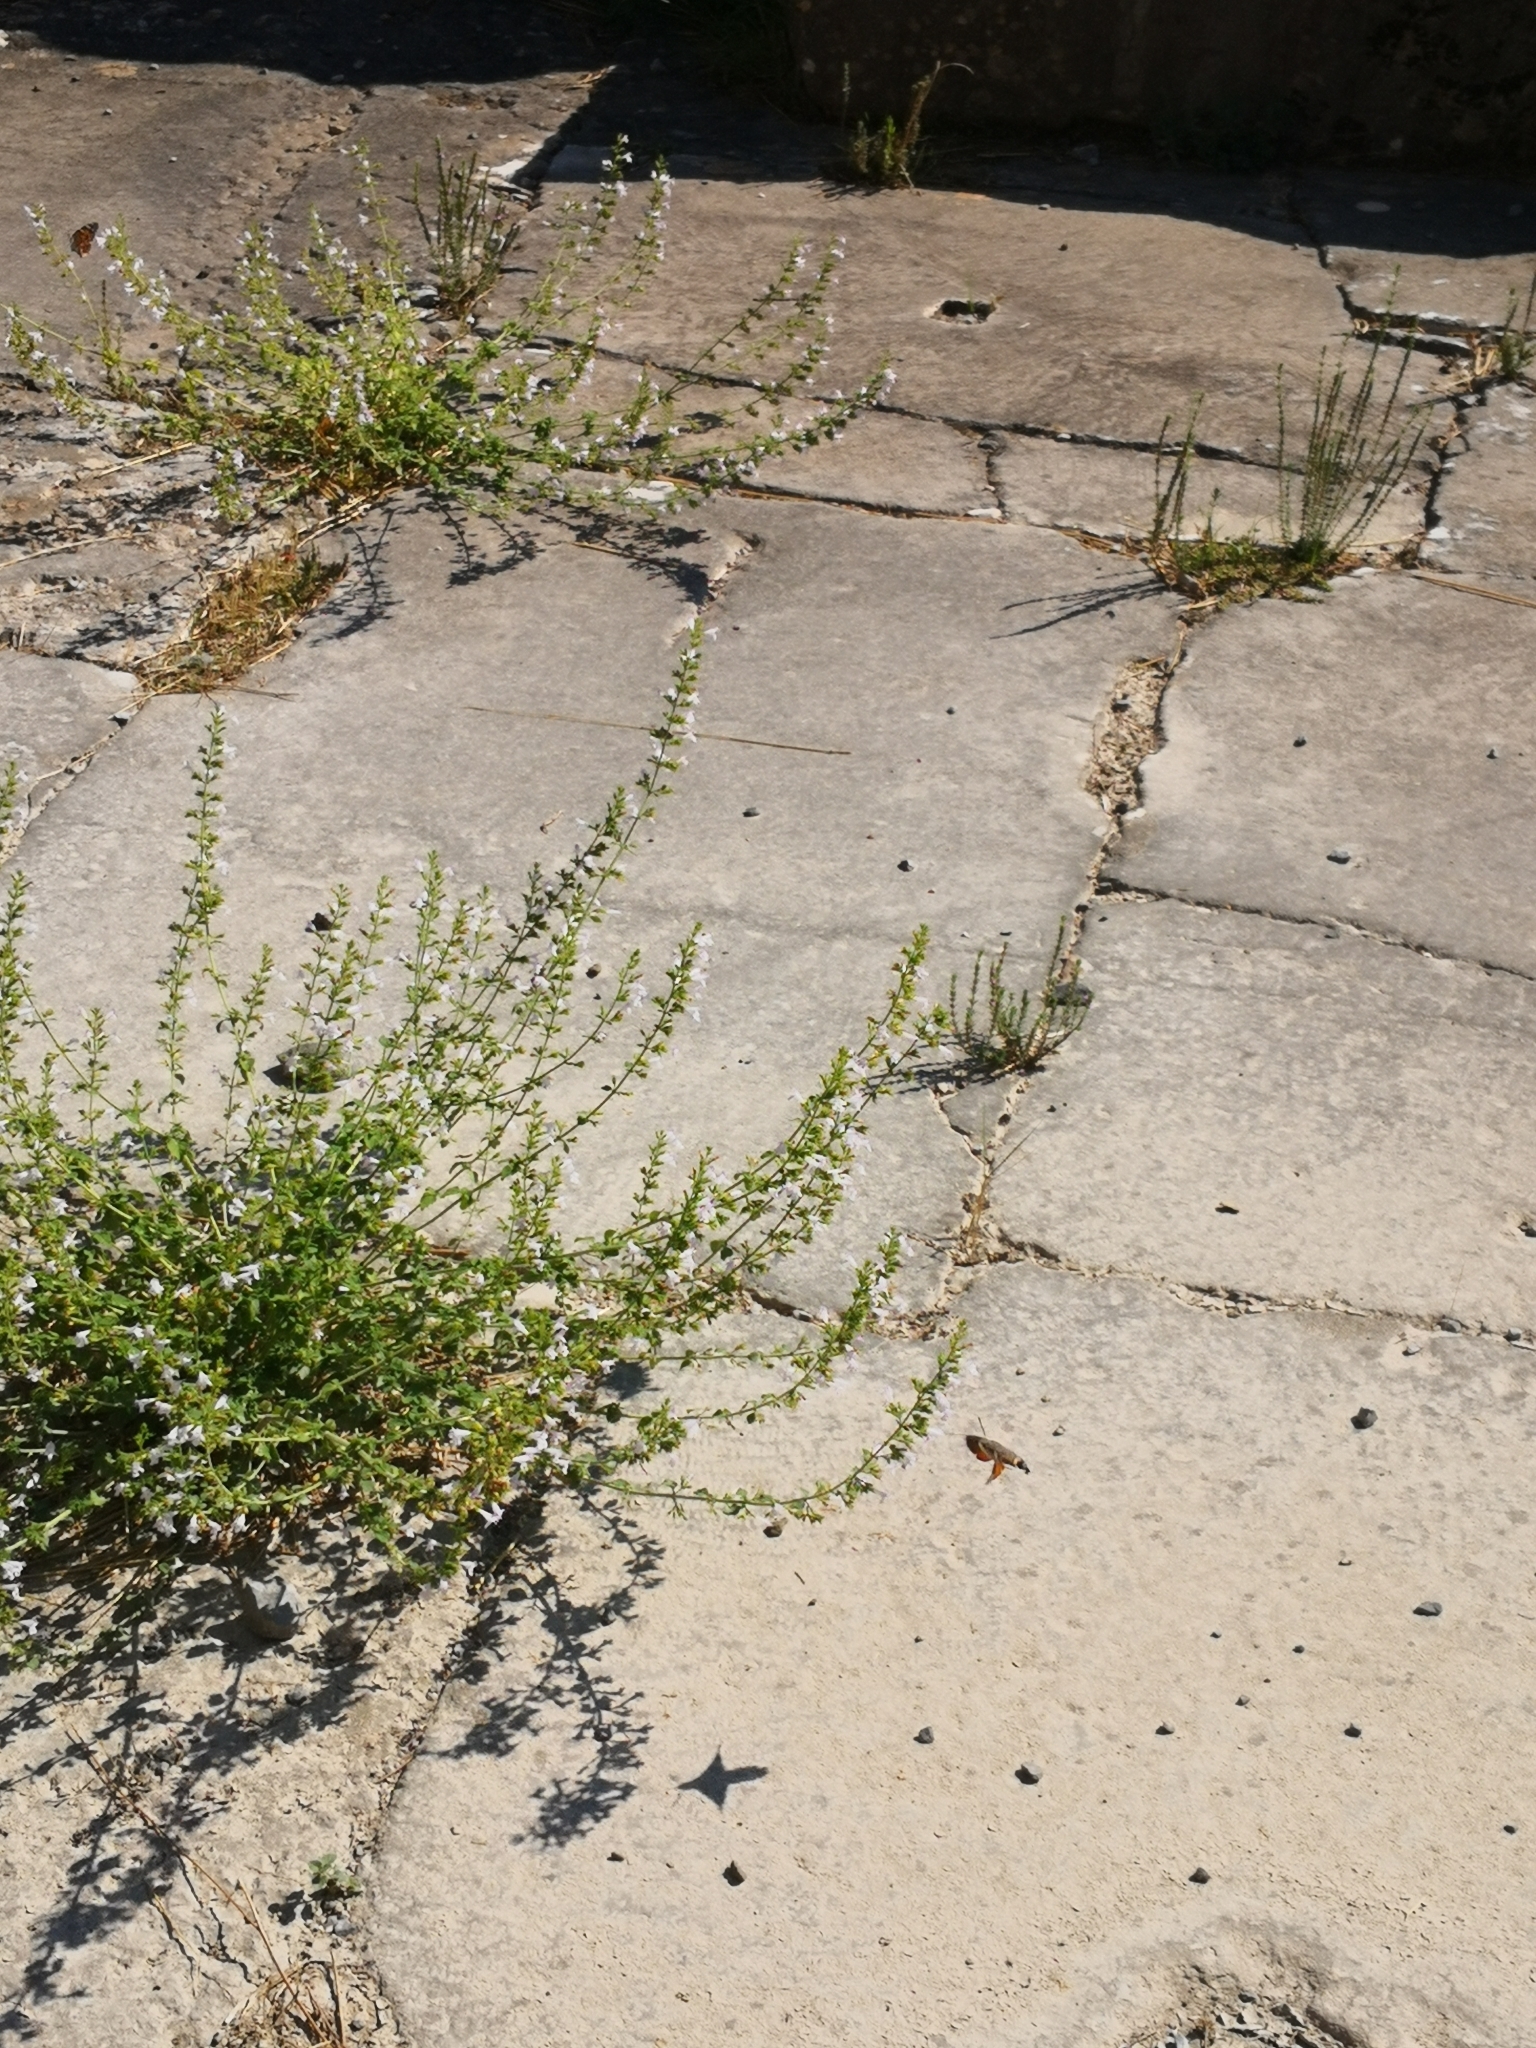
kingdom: Animalia
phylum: Arthropoda
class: Insecta
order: Lepidoptera
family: Sphingidae
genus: Macroglossum
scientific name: Macroglossum stellatarum
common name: Humming-bird hawk-moth
